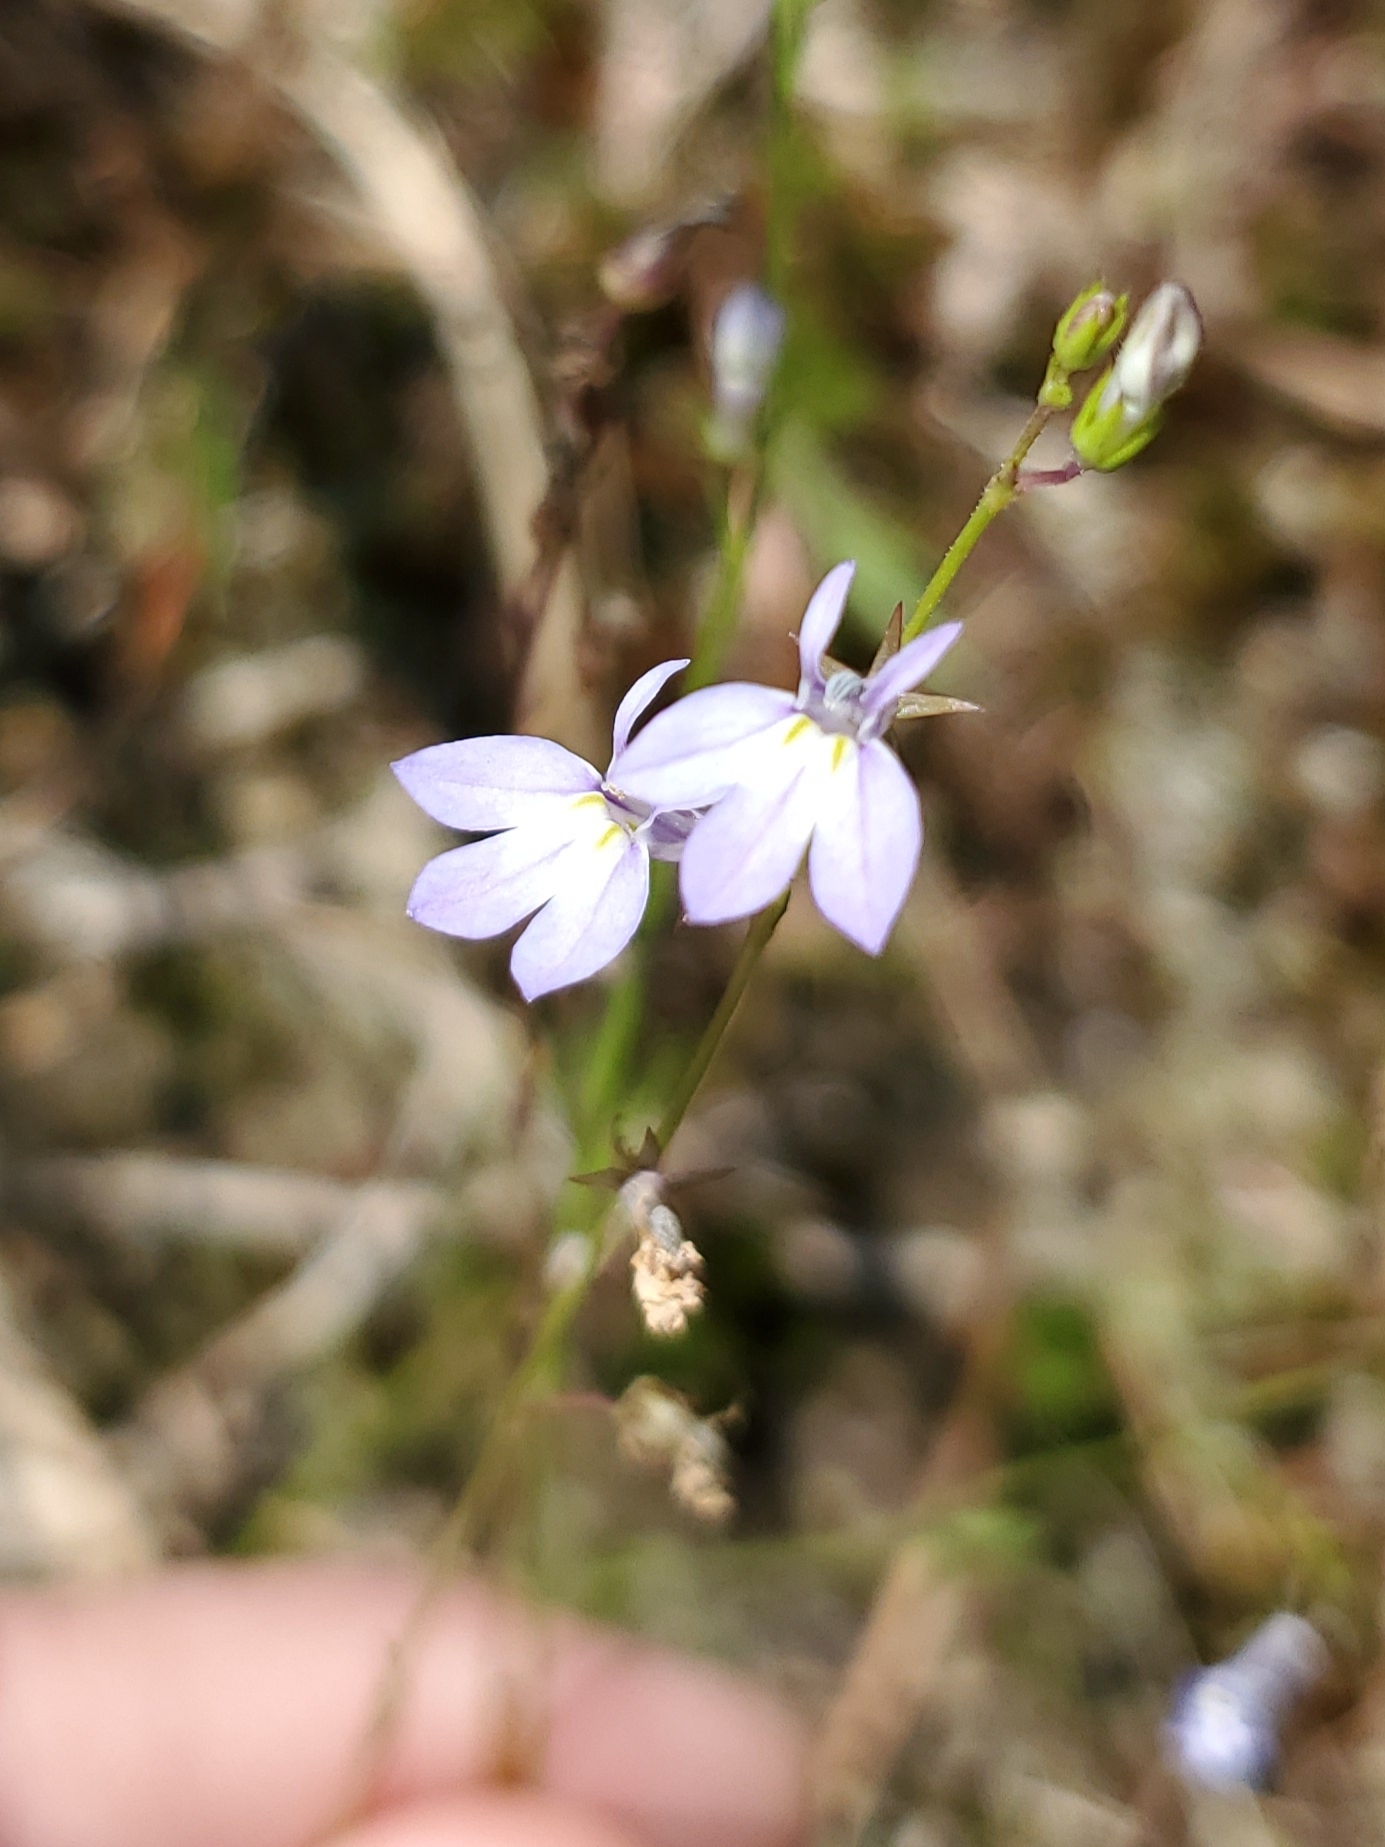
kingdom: Plantae
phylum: Tracheophyta
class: Magnoliopsida
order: Asterales
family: Campanulaceae
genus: Lobelia
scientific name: Lobelia nuttallii
